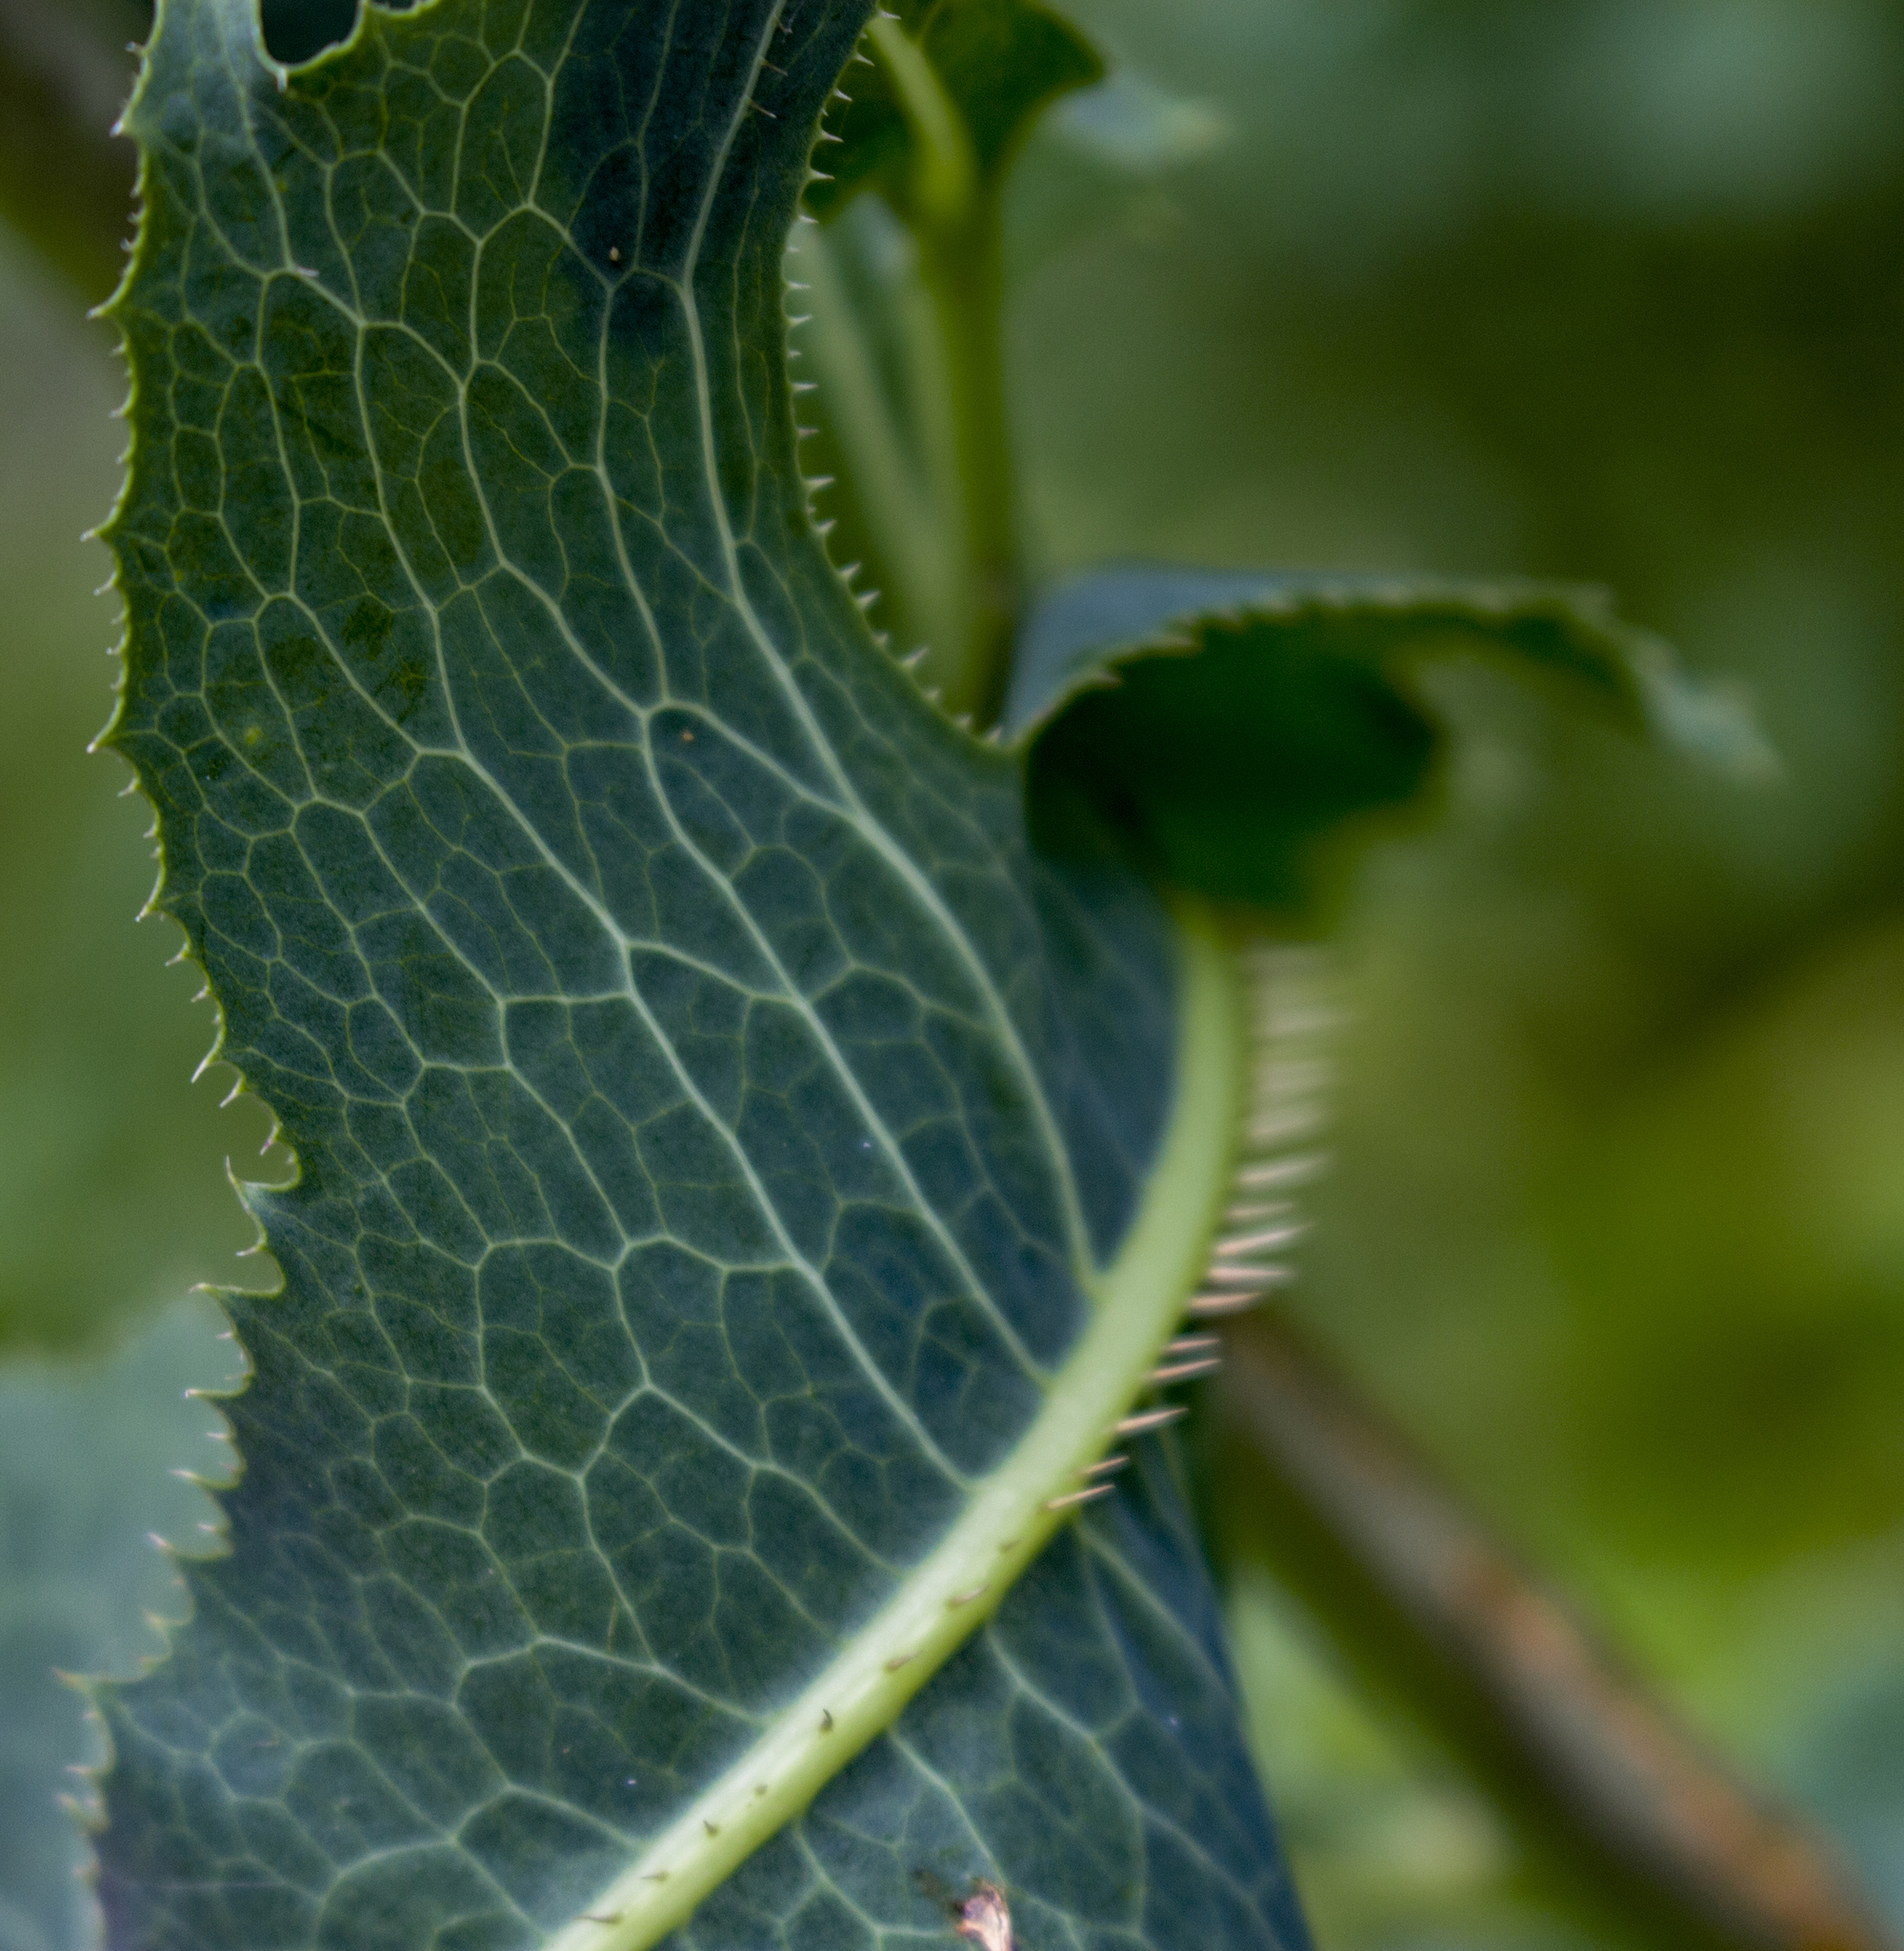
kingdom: Plantae
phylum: Tracheophyta
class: Magnoliopsida
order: Asterales
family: Asteraceae
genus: Lactuca
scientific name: Lactuca serriola
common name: Prickly lettuce
